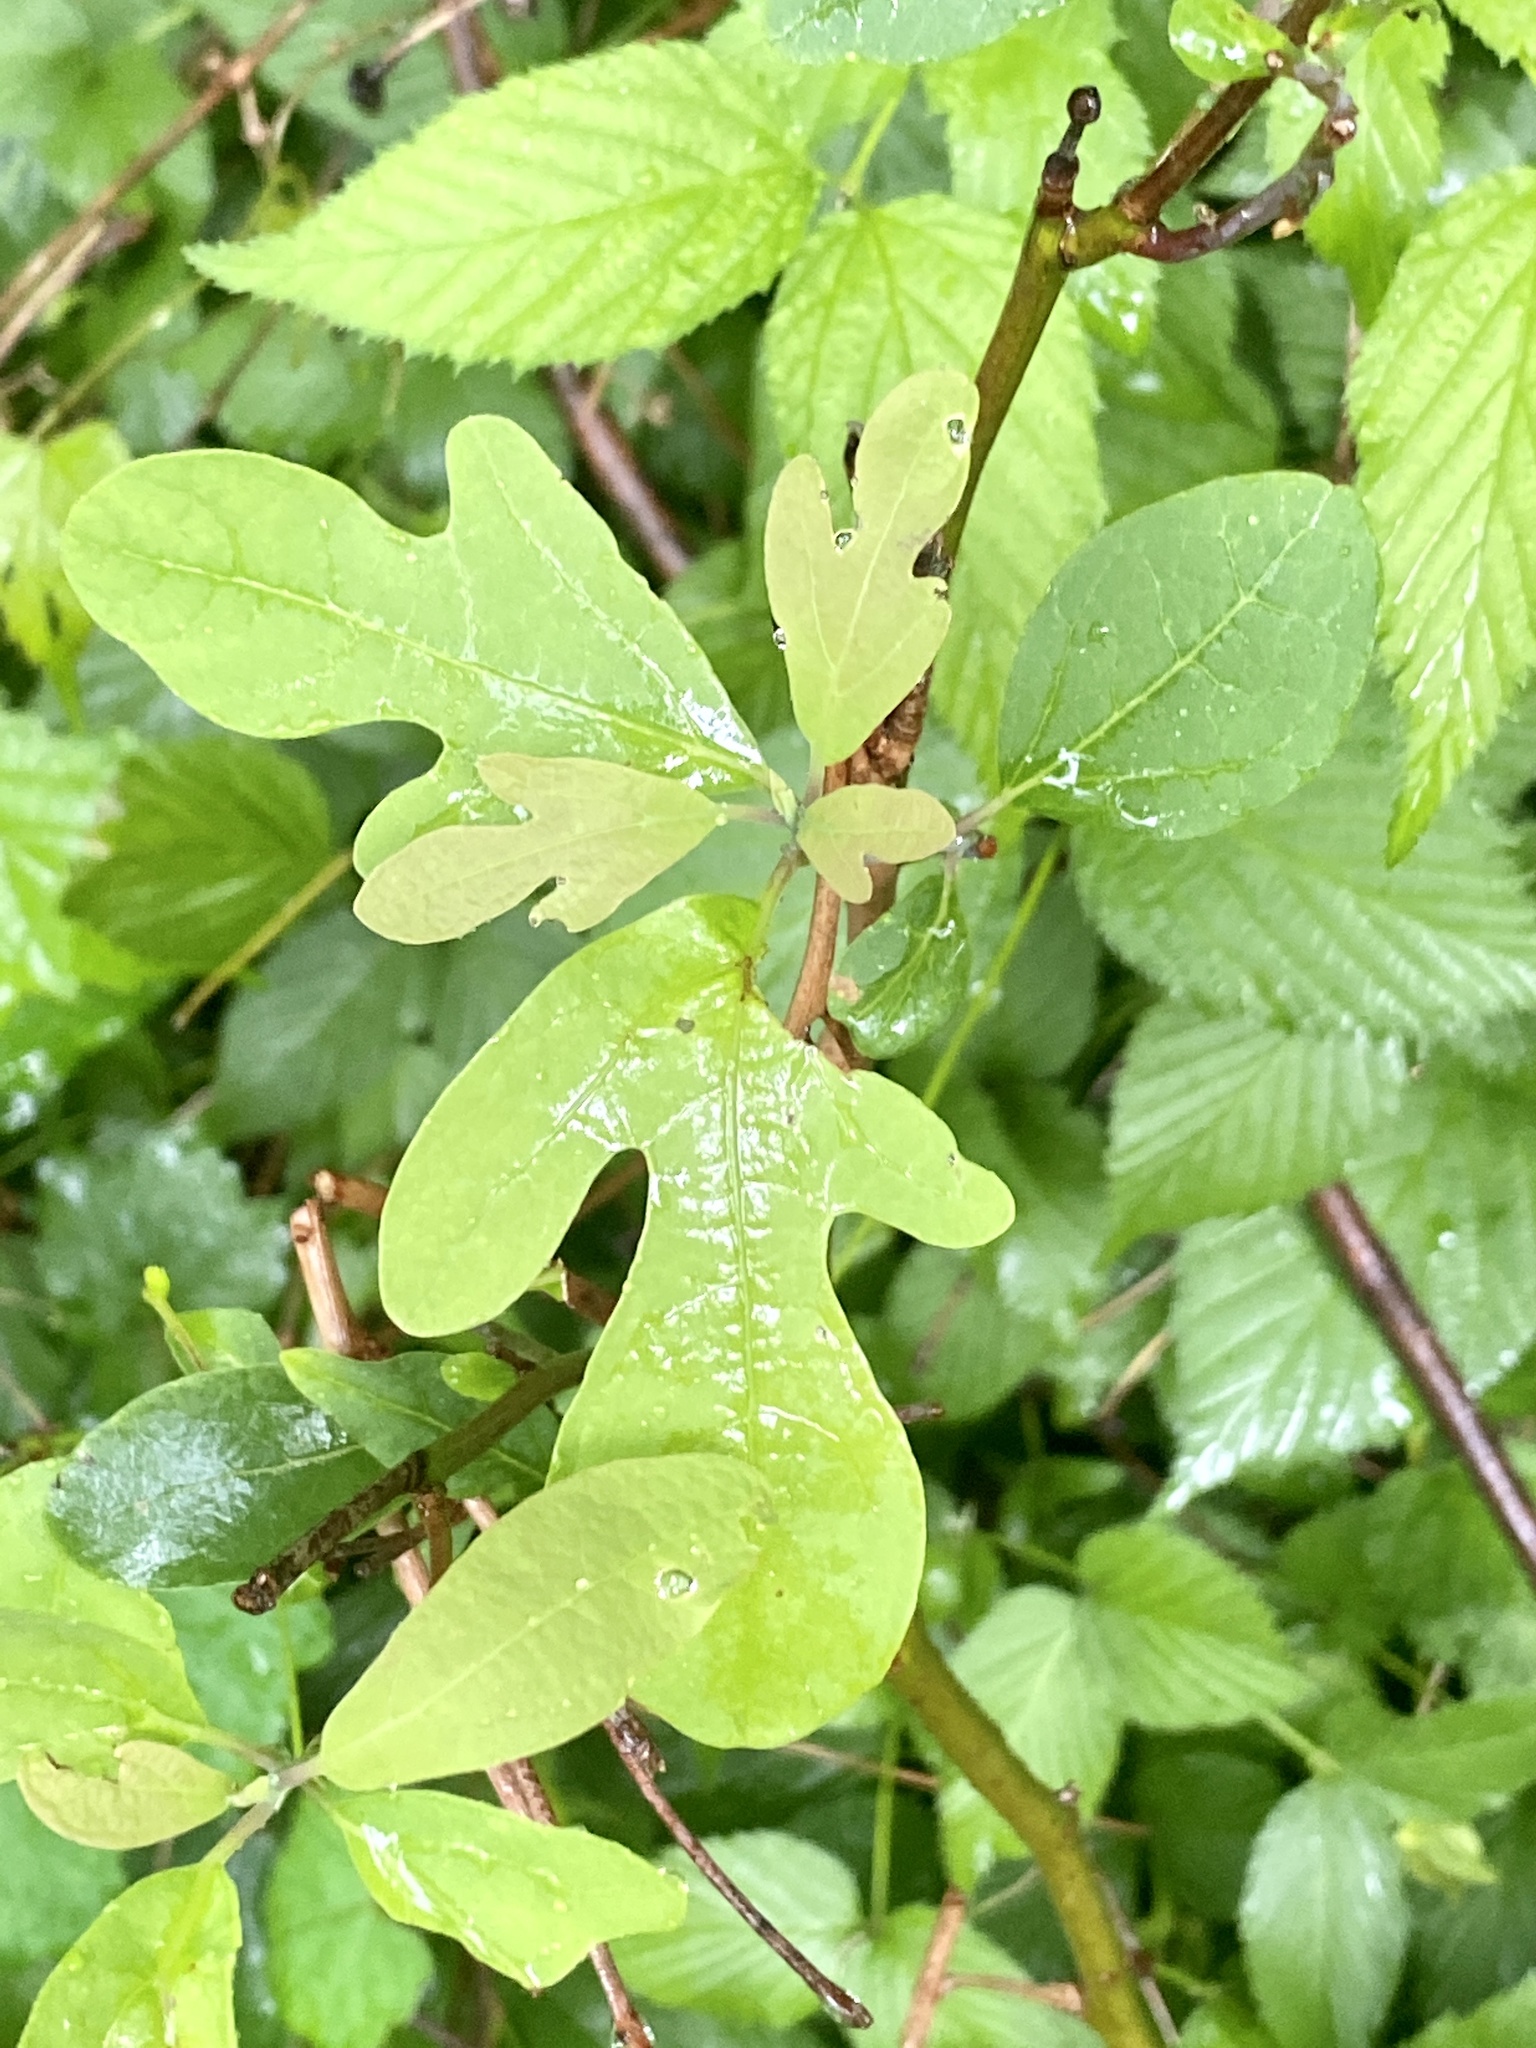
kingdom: Plantae
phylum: Tracheophyta
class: Magnoliopsida
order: Laurales
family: Lauraceae
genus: Sassafras
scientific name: Sassafras albidum
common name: Sassafras
